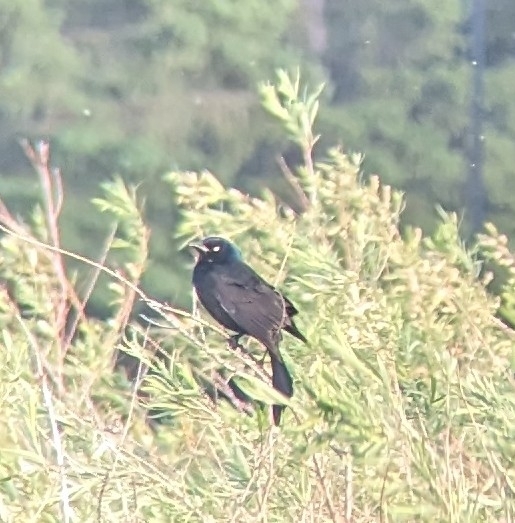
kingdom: Animalia
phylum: Chordata
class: Aves
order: Passeriformes
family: Icteridae
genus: Quiscalus
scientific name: Quiscalus quiscula
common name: Common grackle
